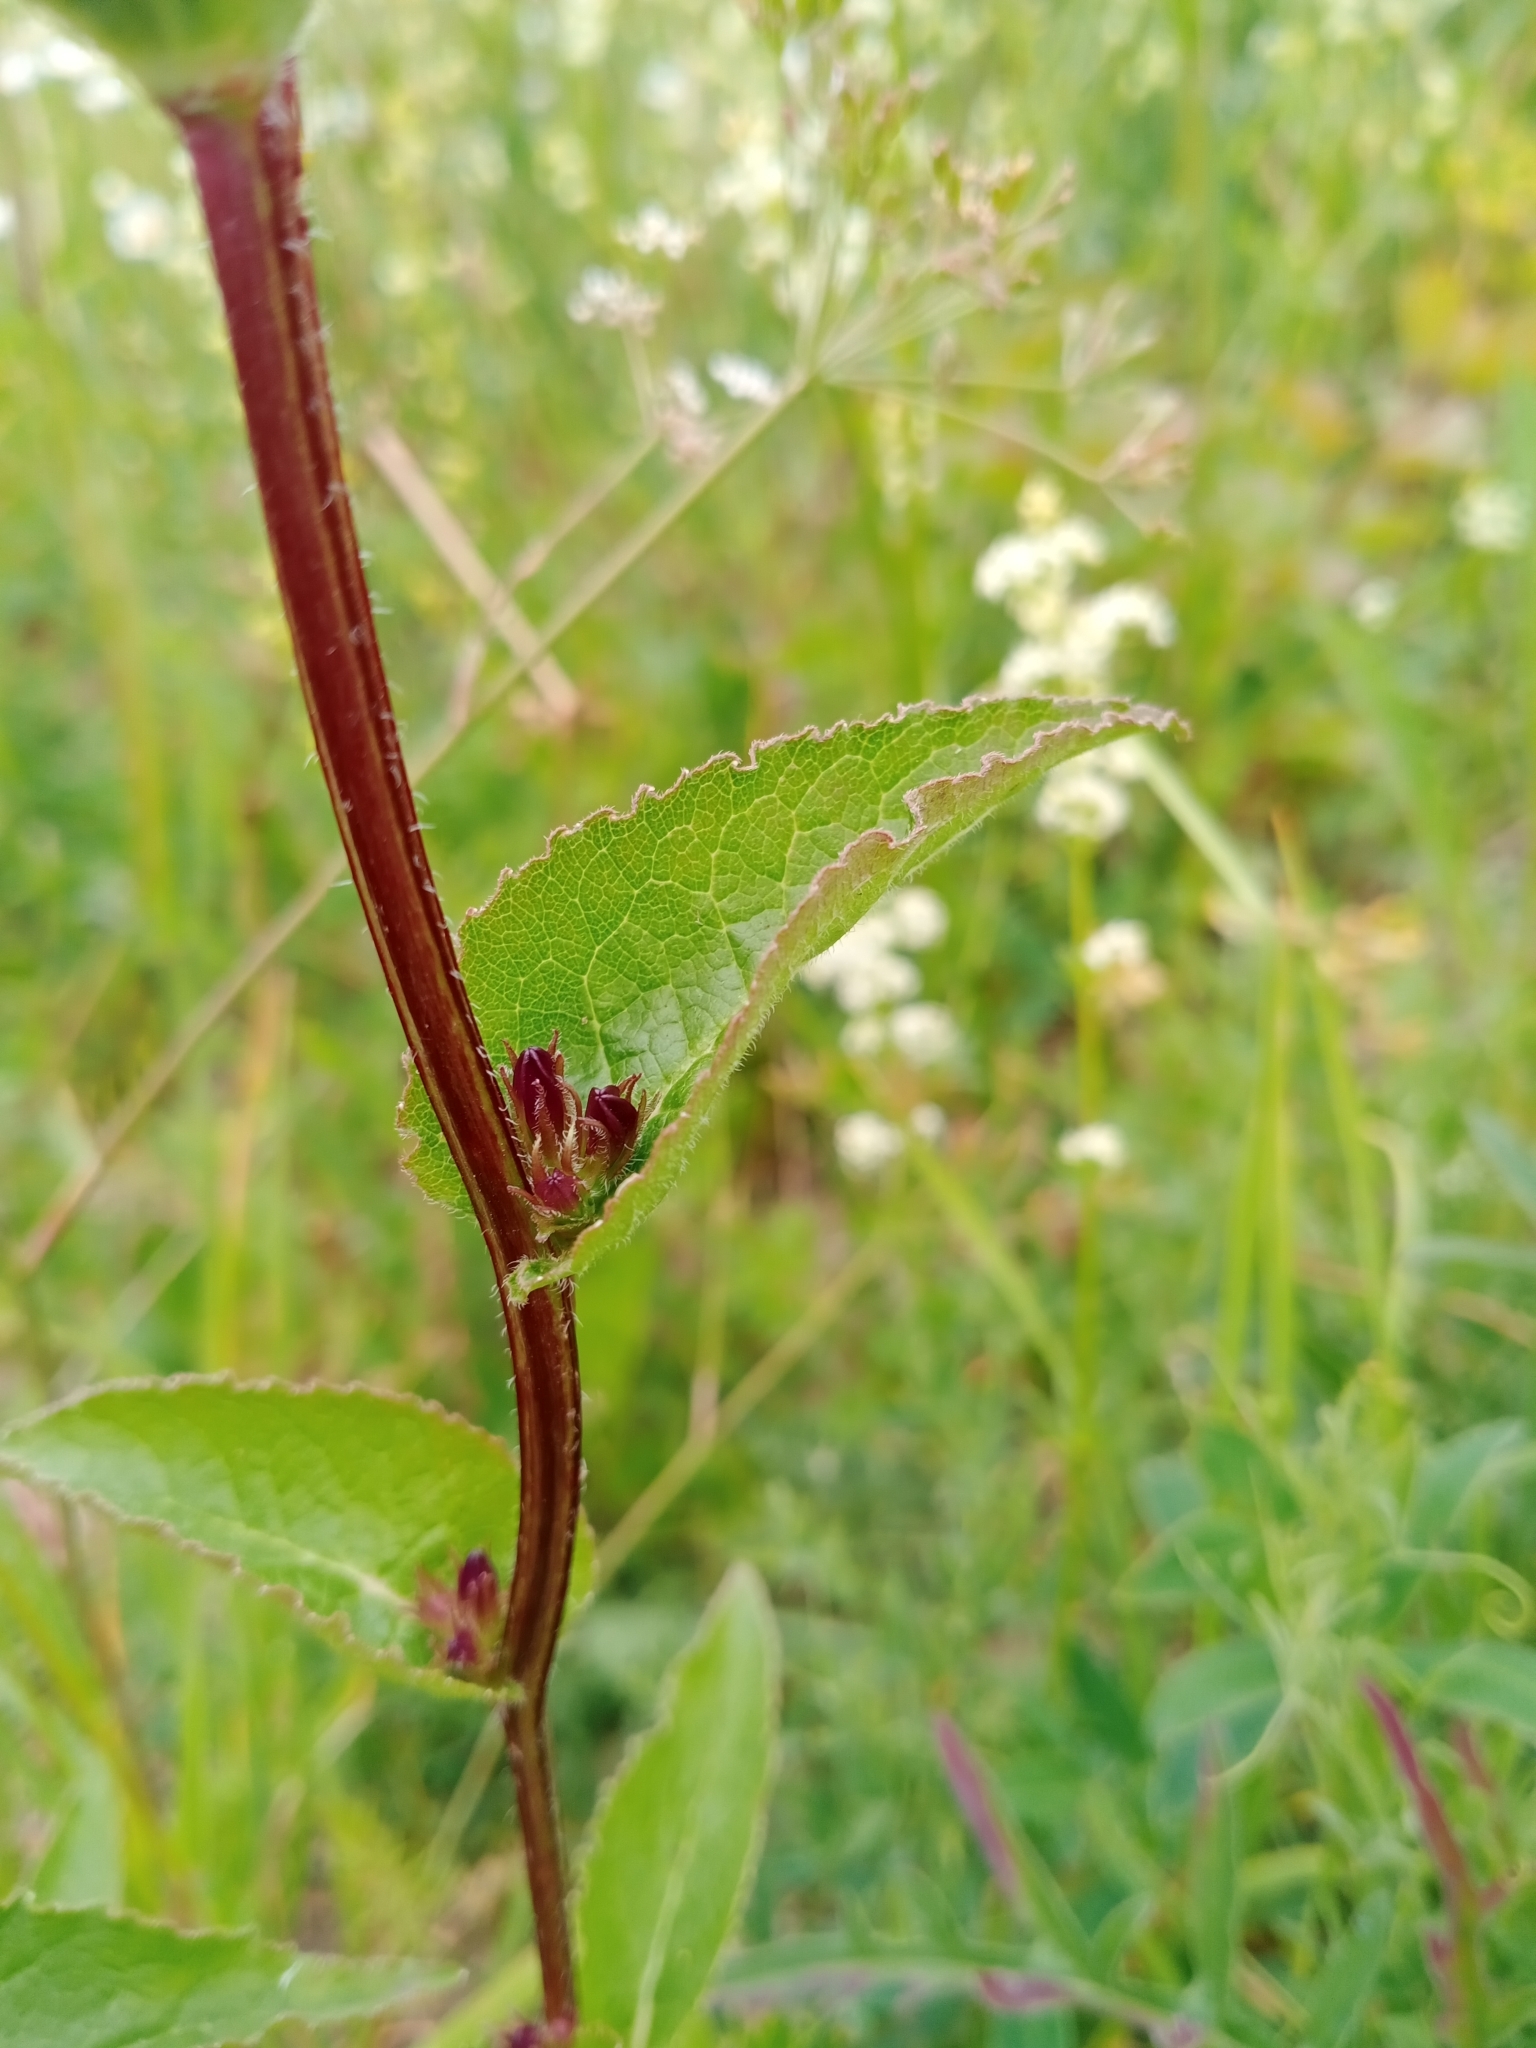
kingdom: Plantae
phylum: Tracheophyta
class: Magnoliopsida
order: Asterales
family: Campanulaceae
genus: Campanula
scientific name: Campanula glomerata
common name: Clustered bellflower
